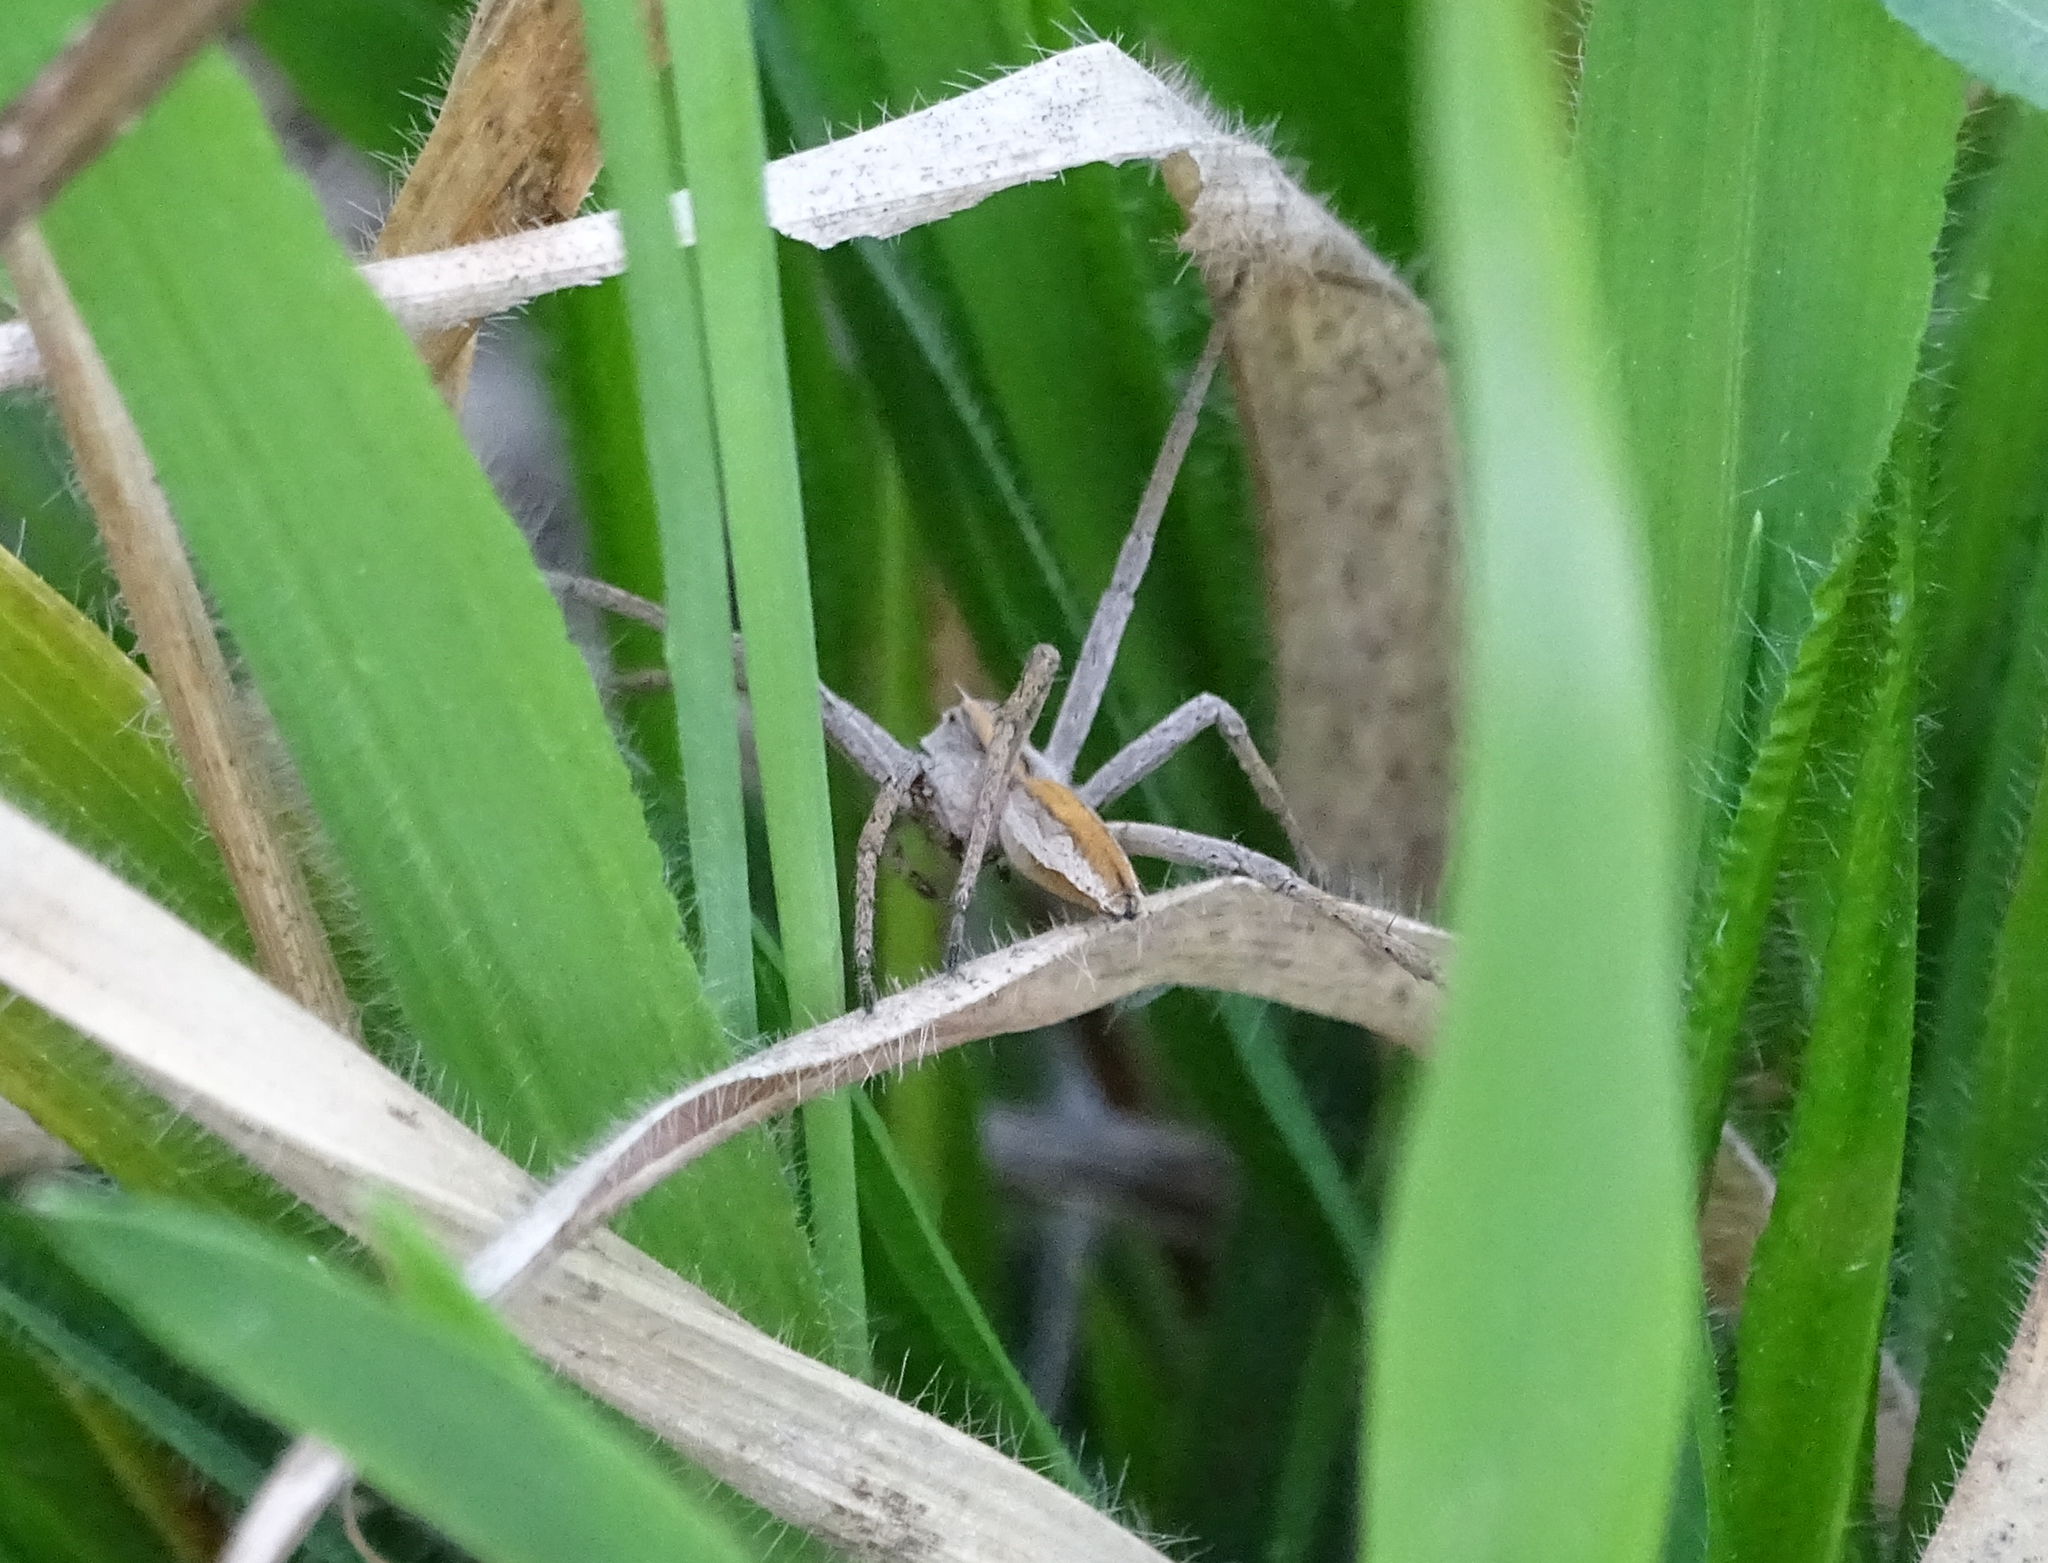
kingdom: Animalia
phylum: Arthropoda
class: Arachnida
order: Araneae
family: Pisauridae
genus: Pisaura
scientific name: Pisaura mirabilis
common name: Tent spider
